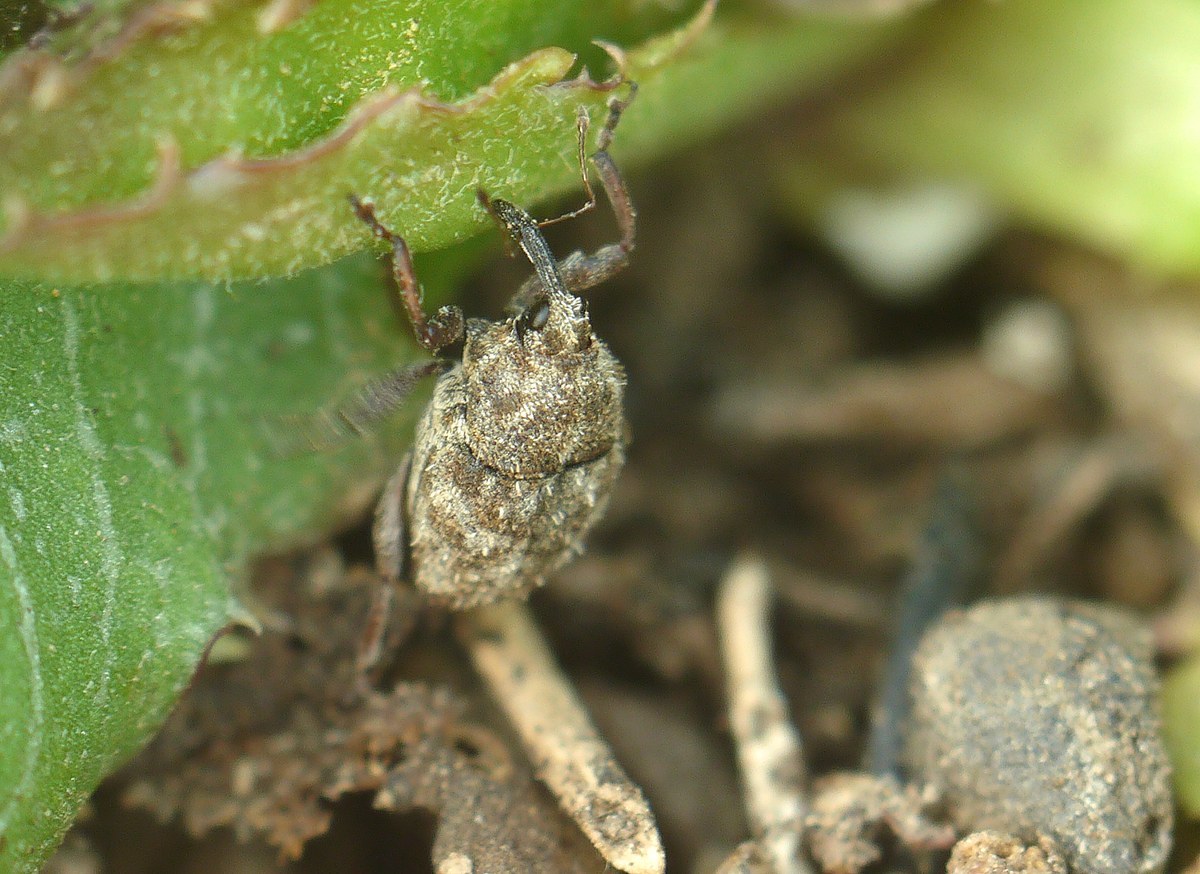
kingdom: Animalia
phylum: Arthropoda
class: Insecta
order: Coleoptera
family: Curculionidae
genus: Trichosirocalus
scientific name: Trichosirocalus horridus
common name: Musk thistle rosette weevil
